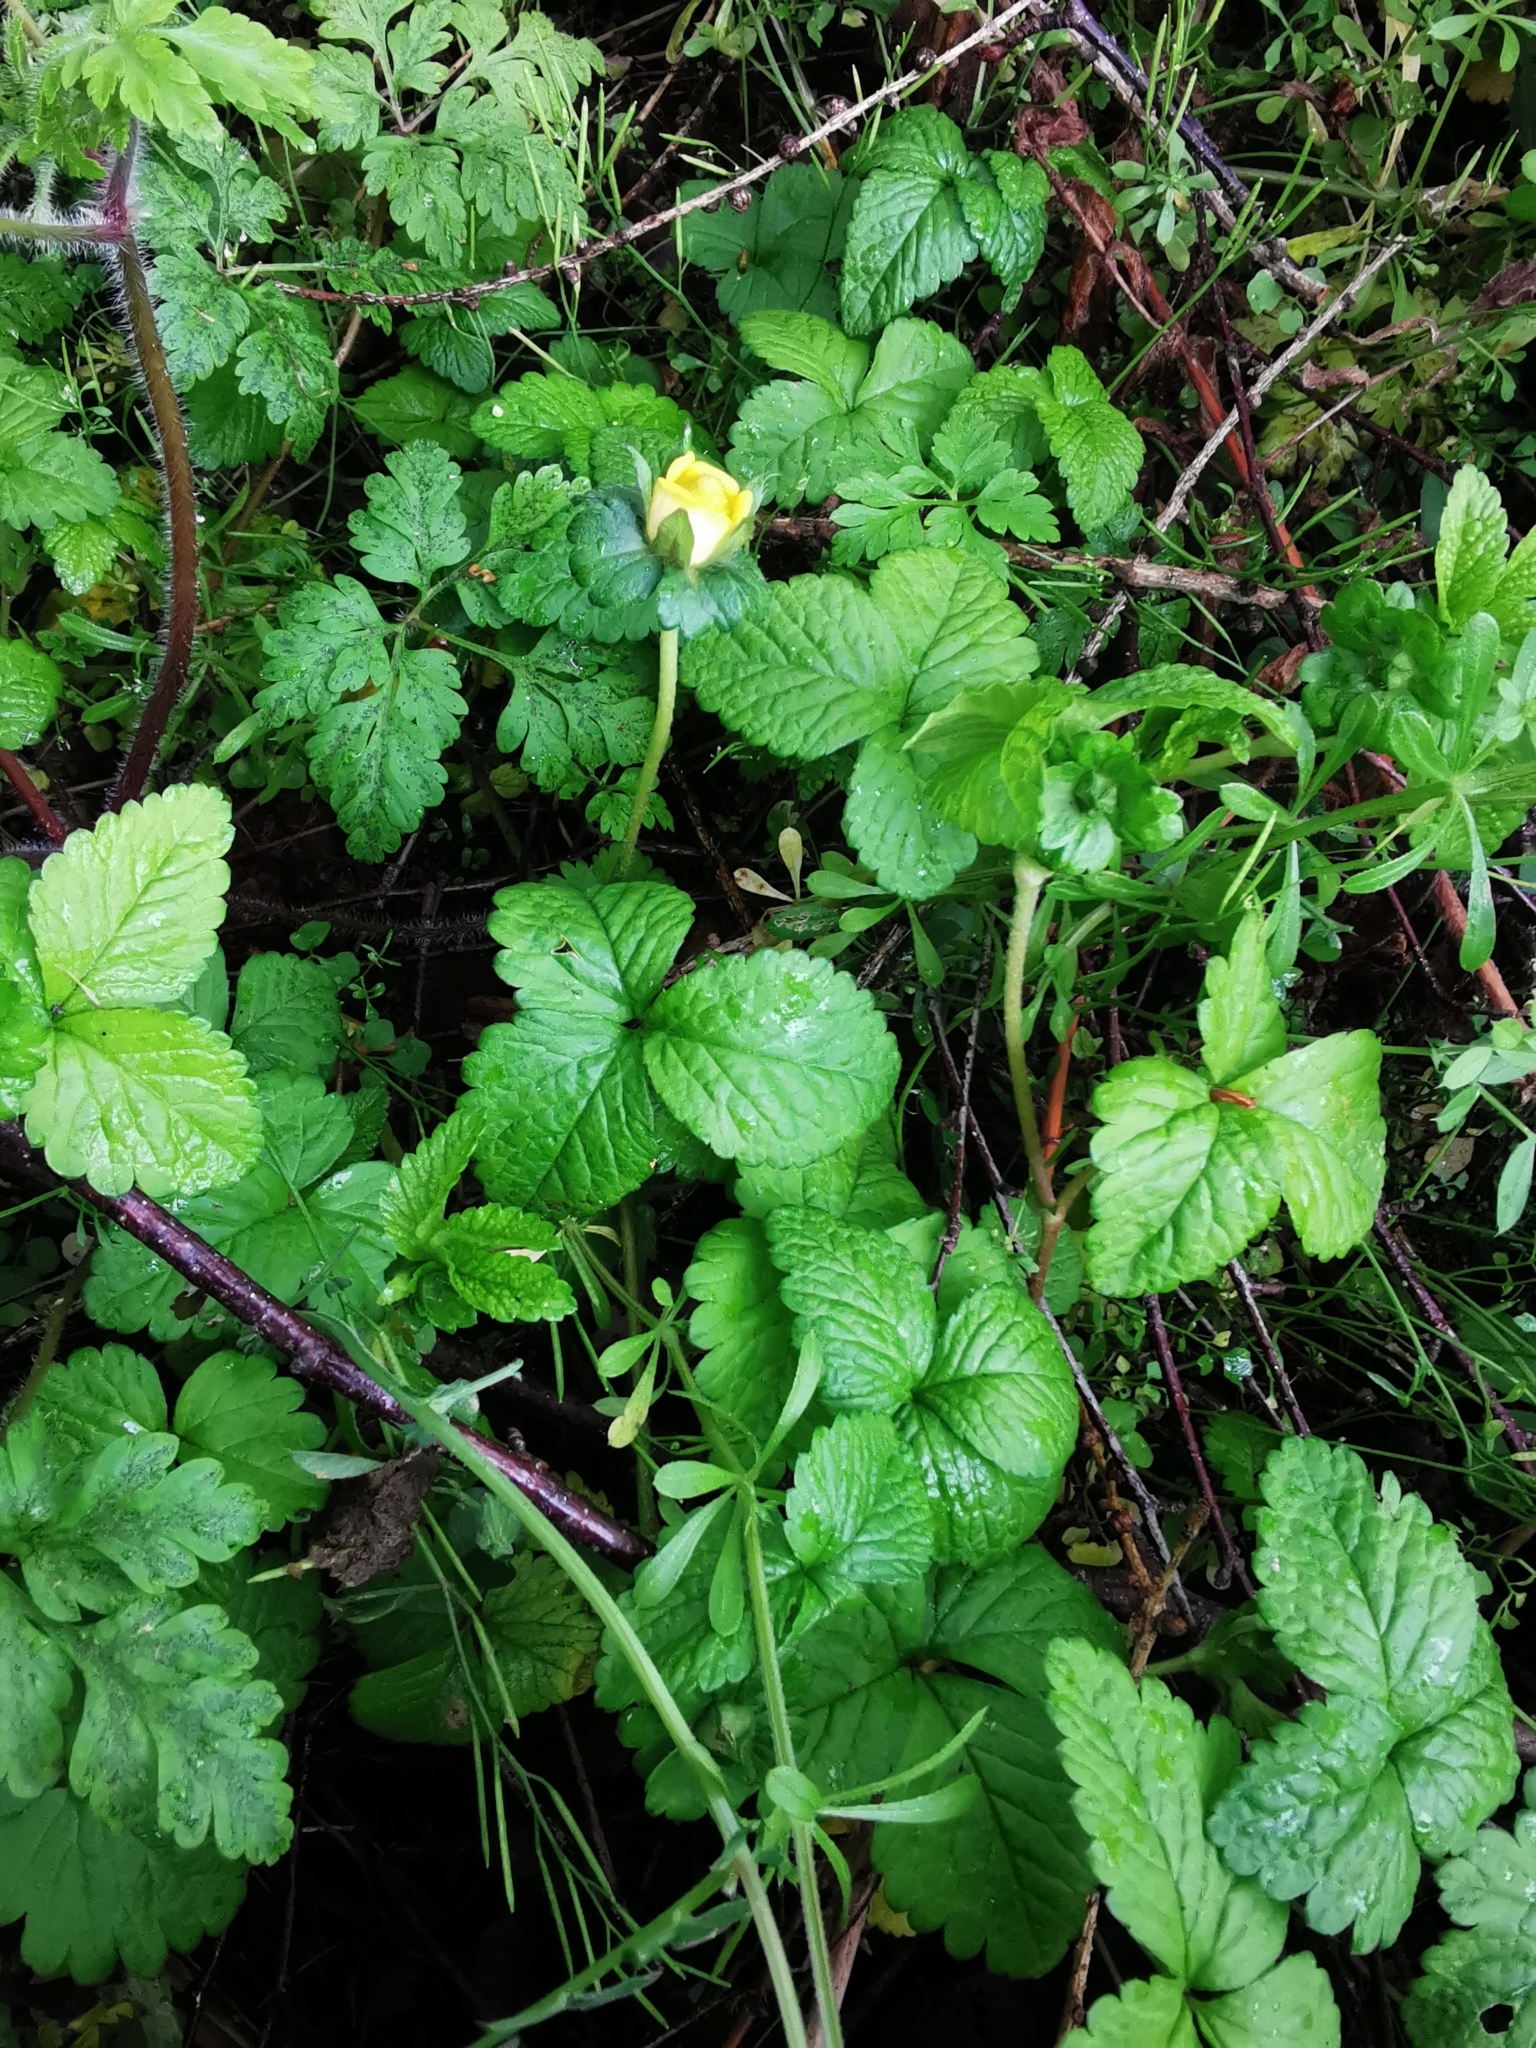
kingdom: Plantae
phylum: Tracheophyta
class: Magnoliopsida
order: Rosales
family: Rosaceae
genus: Potentilla
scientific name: Potentilla indica
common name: Yellow-flowered strawberry
